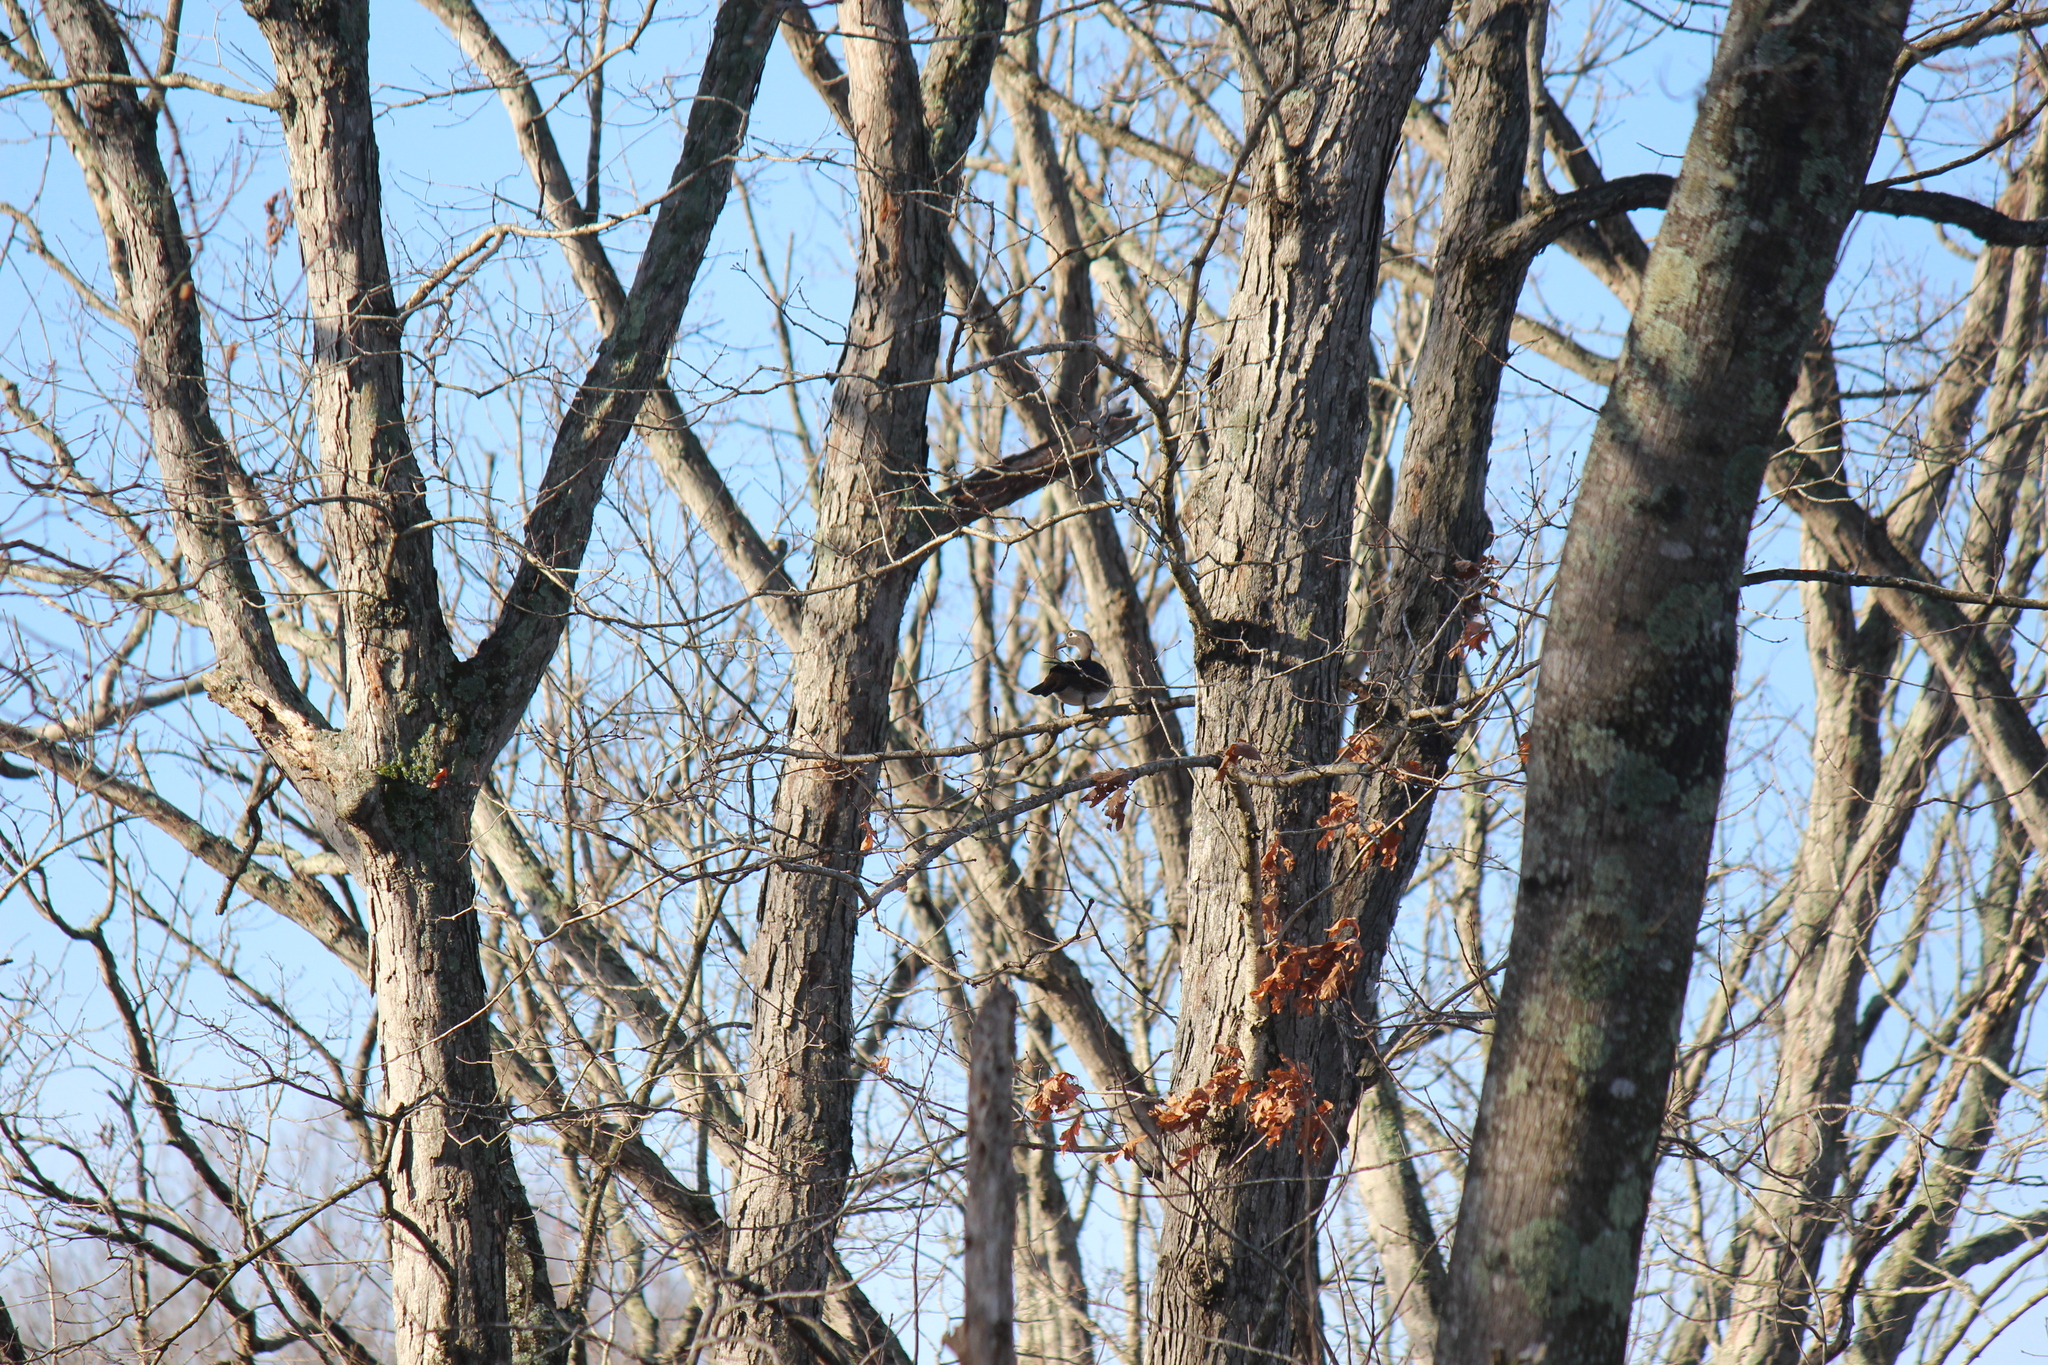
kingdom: Animalia
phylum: Chordata
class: Aves
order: Anseriformes
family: Anatidae
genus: Aix
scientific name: Aix sponsa
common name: Wood duck
